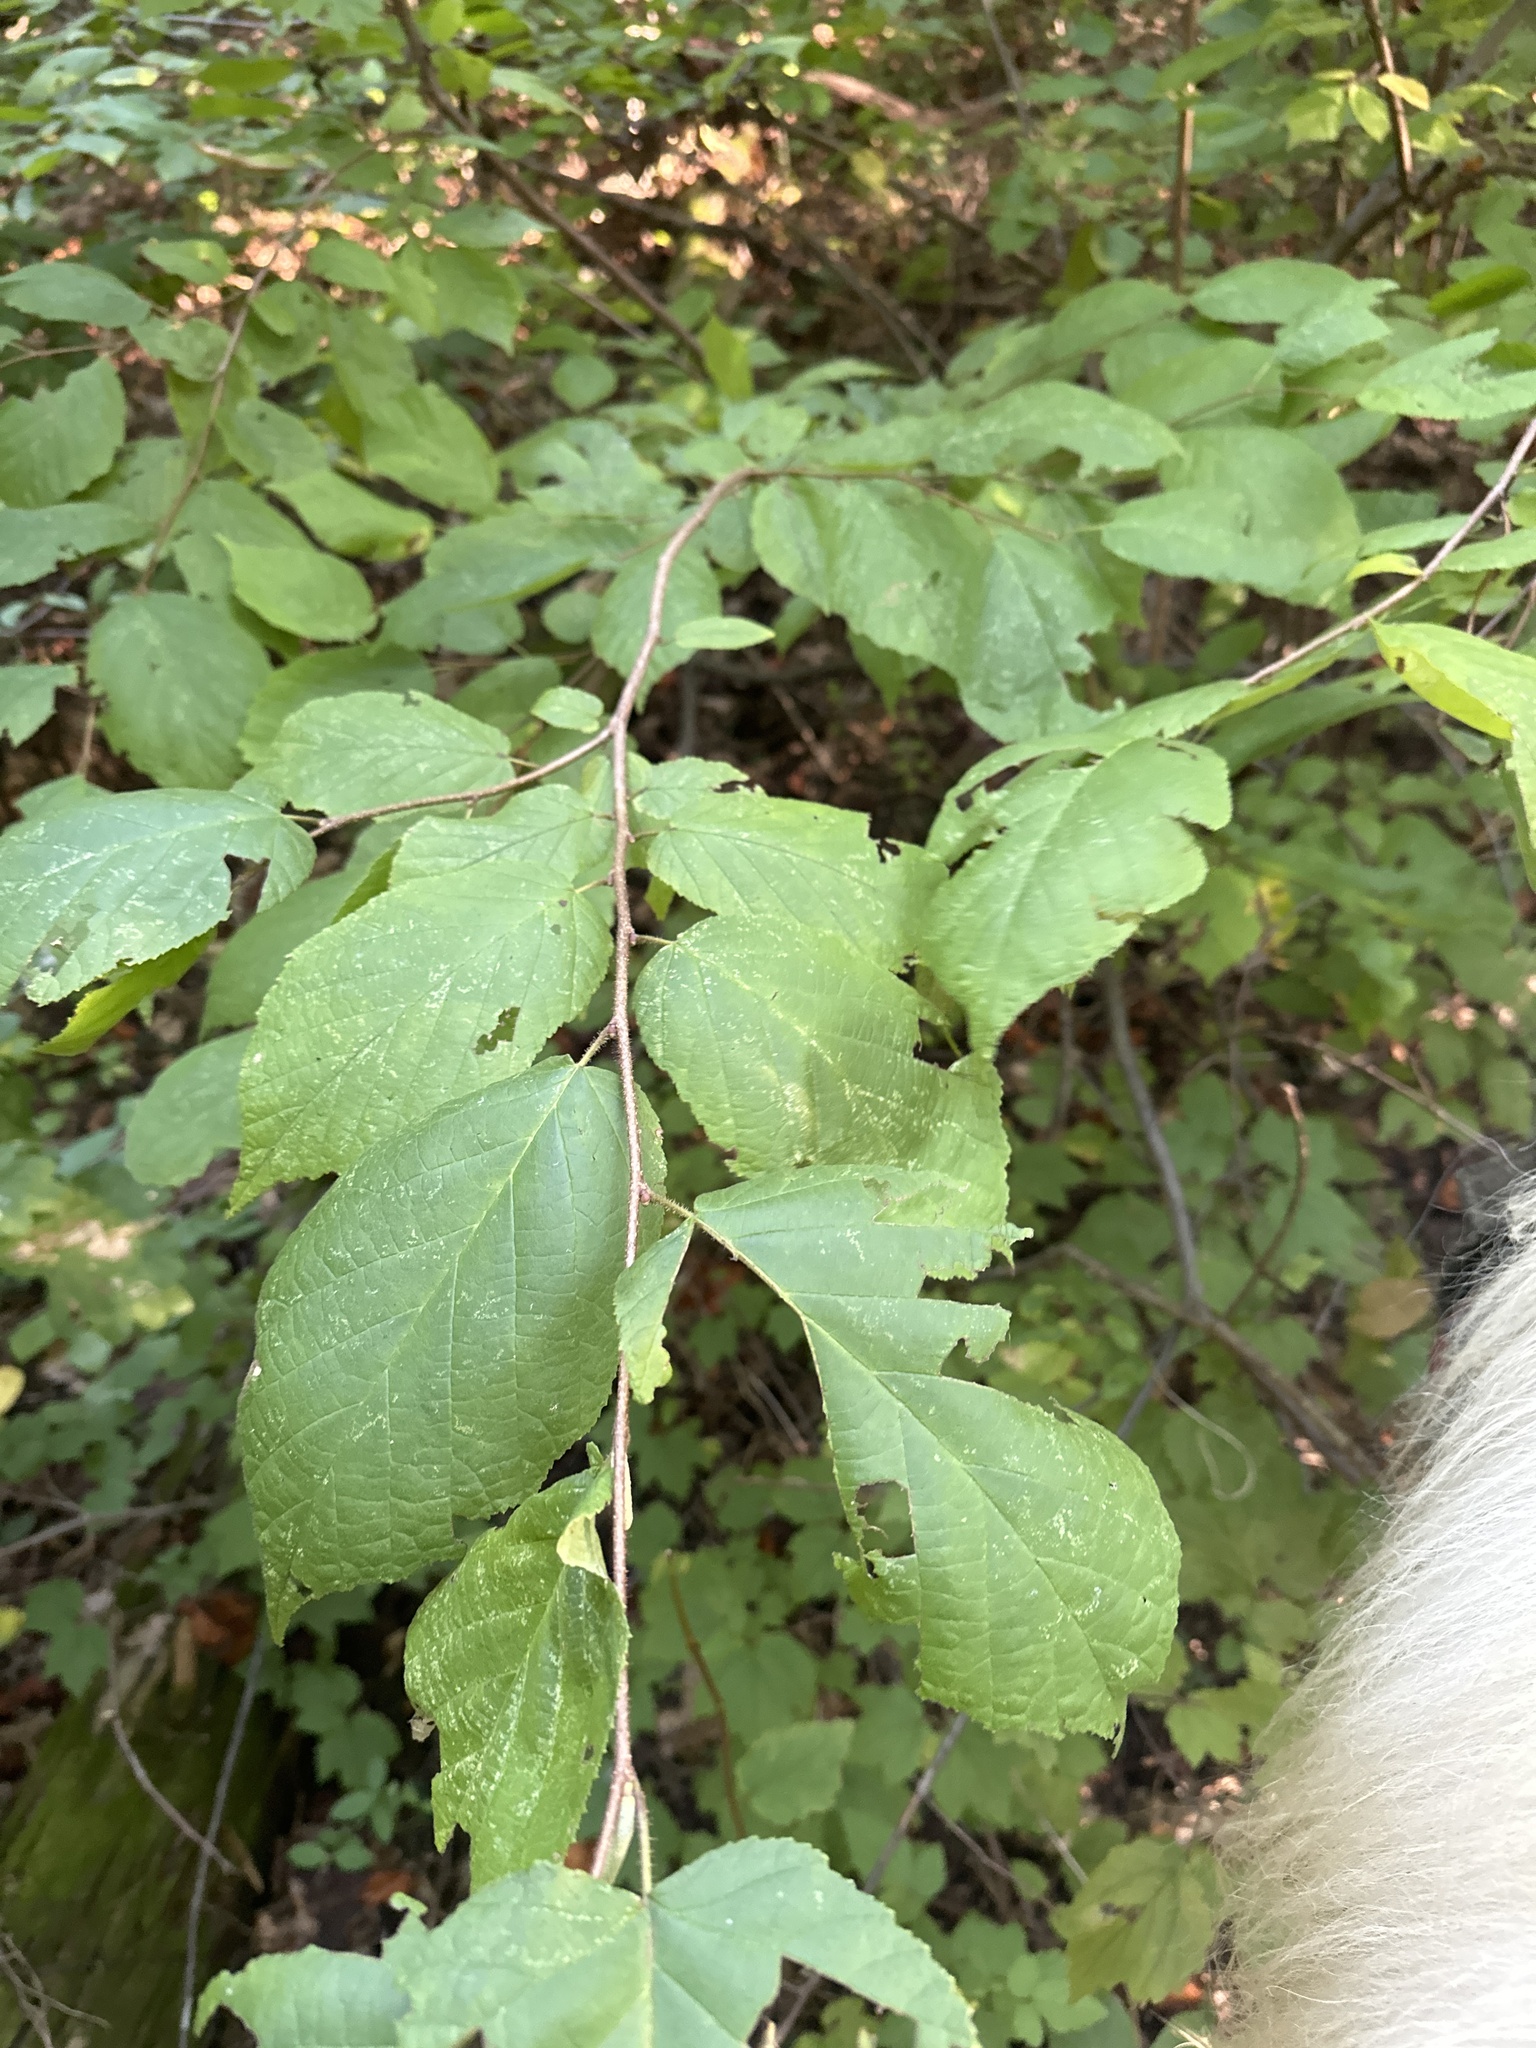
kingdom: Plantae
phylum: Tracheophyta
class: Magnoliopsida
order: Fagales
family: Betulaceae
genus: Corylus
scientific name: Corylus americana
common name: American hazel
